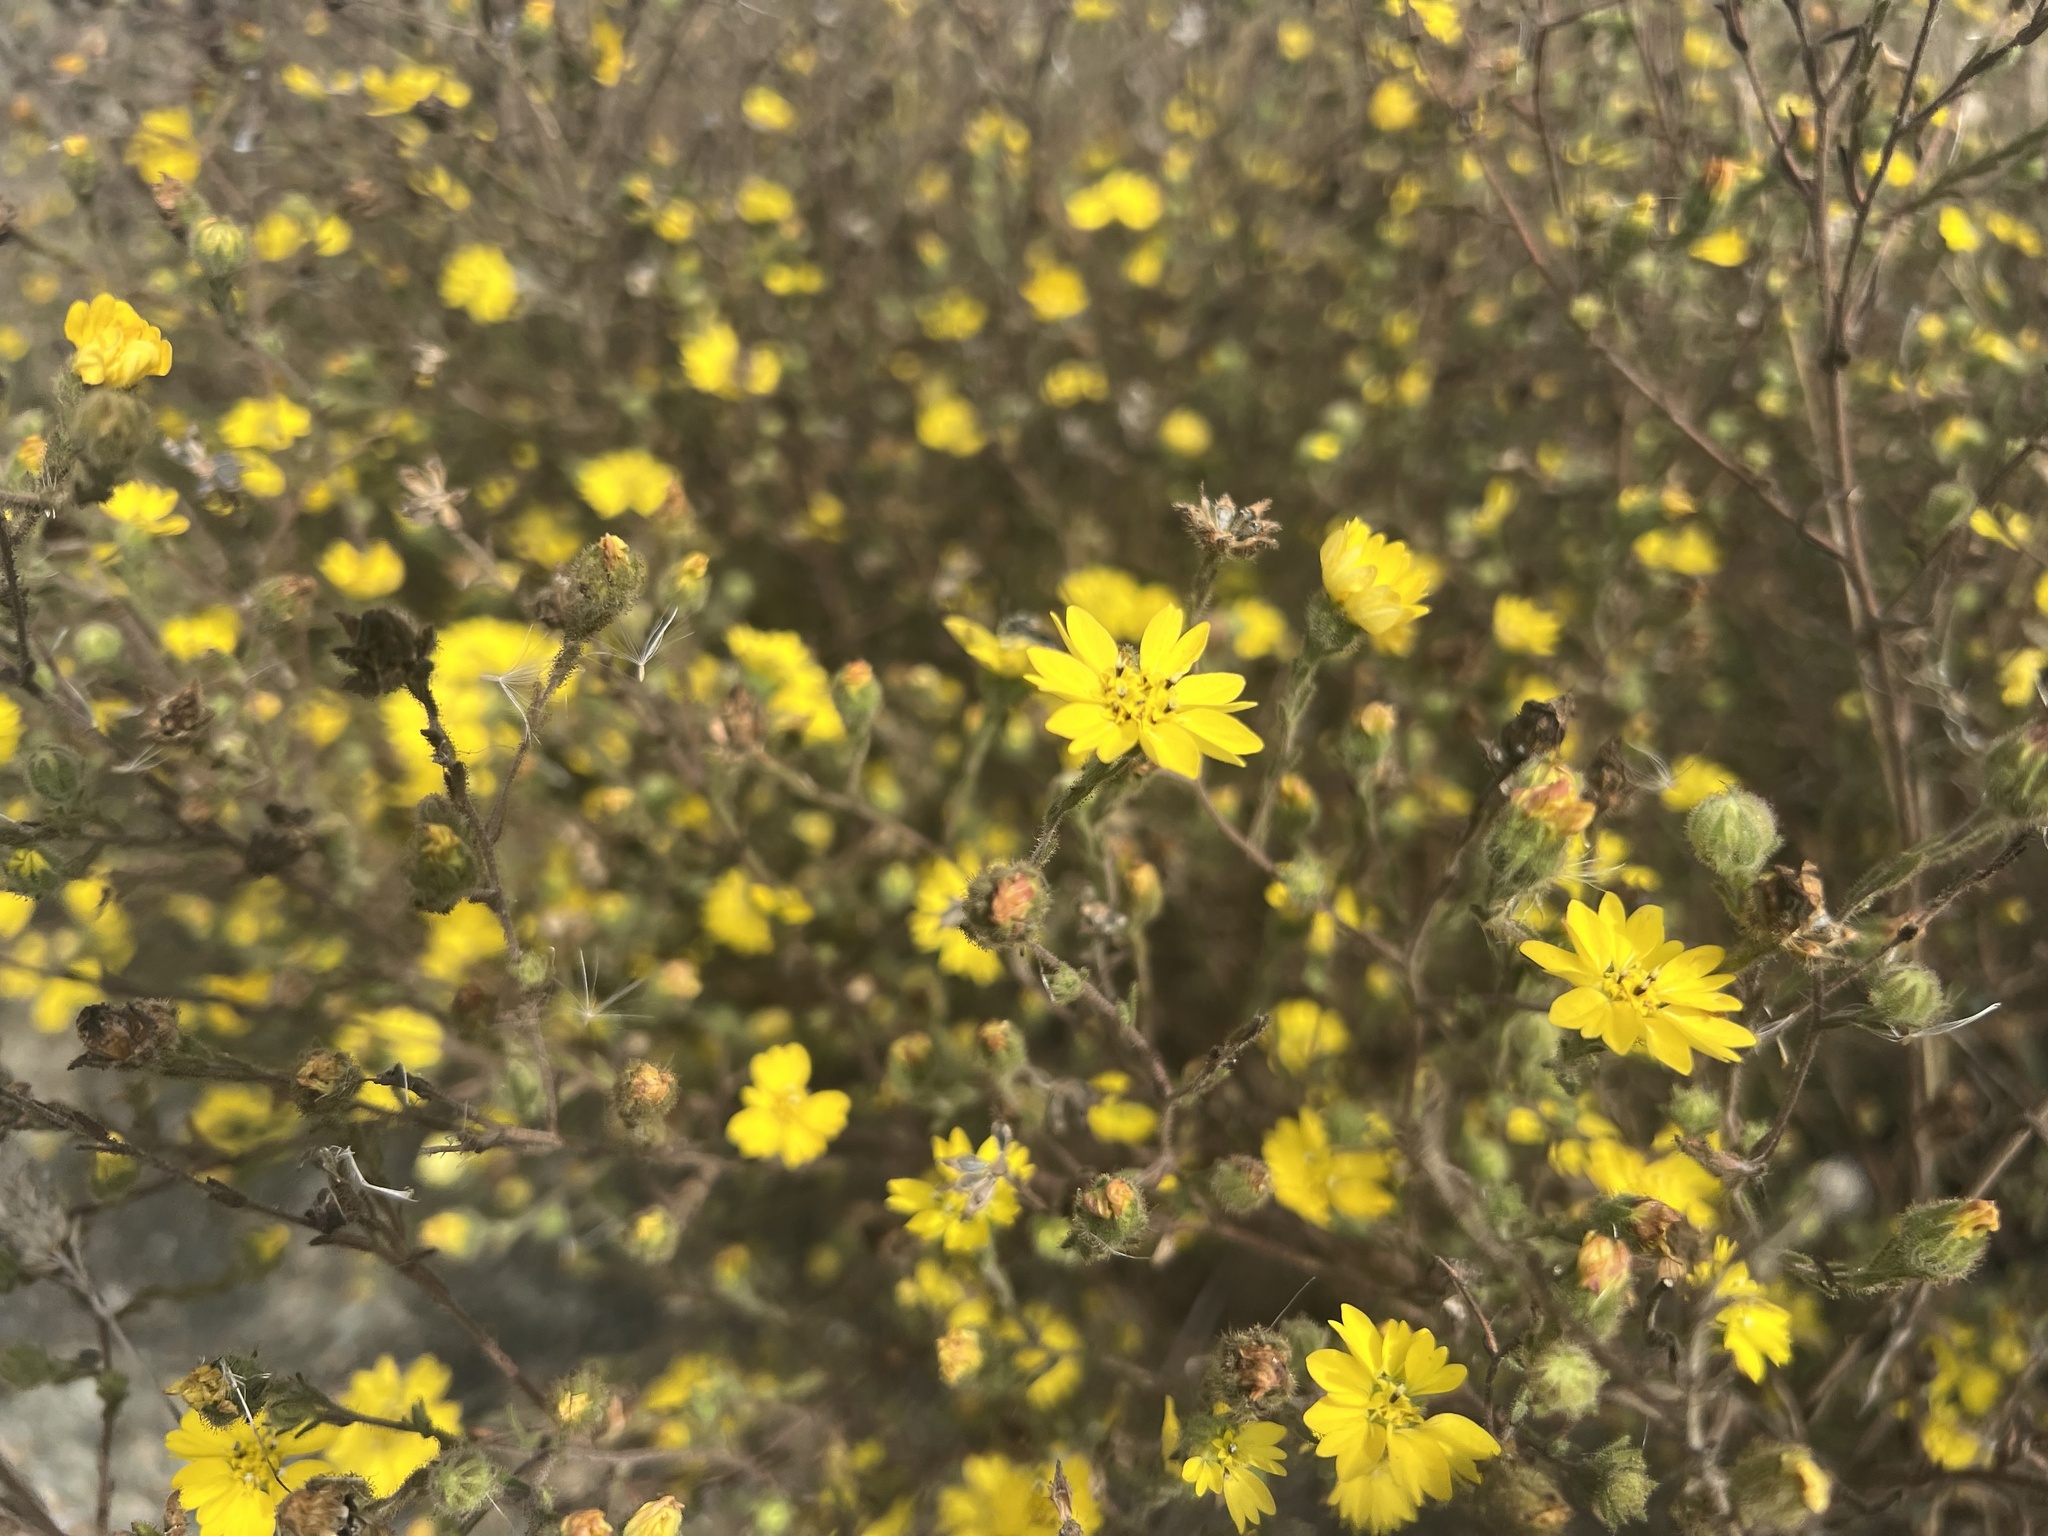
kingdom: Plantae
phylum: Tracheophyta
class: Magnoliopsida
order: Asterales
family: Asteraceae
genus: Hemizonia
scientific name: Hemizonia congesta
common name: Hayfield tarweed
